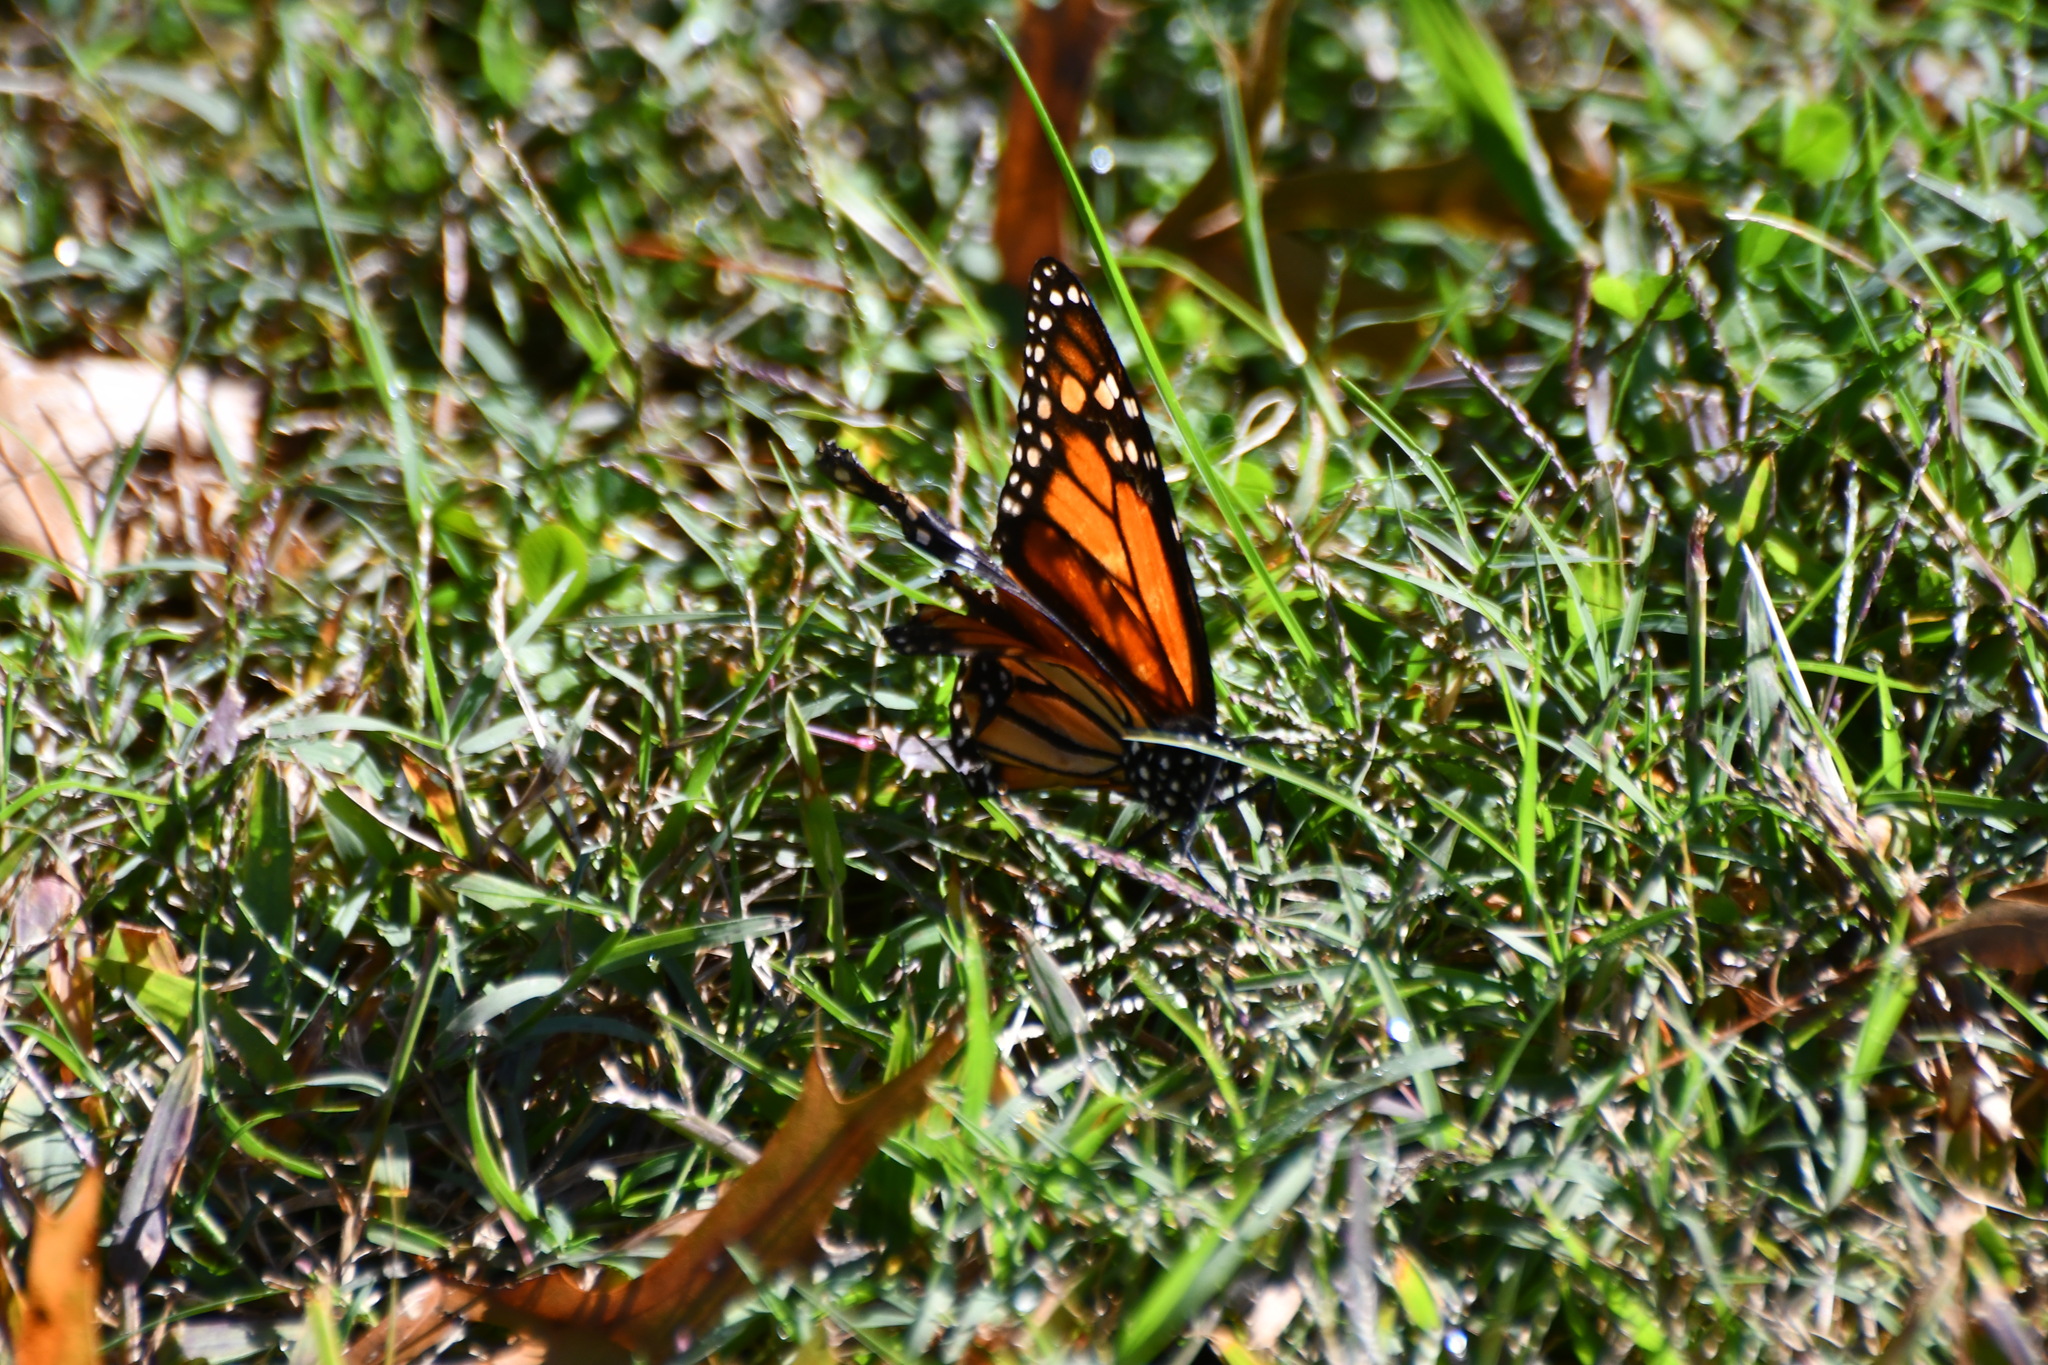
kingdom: Animalia
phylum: Arthropoda
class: Insecta
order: Lepidoptera
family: Nymphalidae
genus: Danaus
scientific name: Danaus plexippus
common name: Monarch
